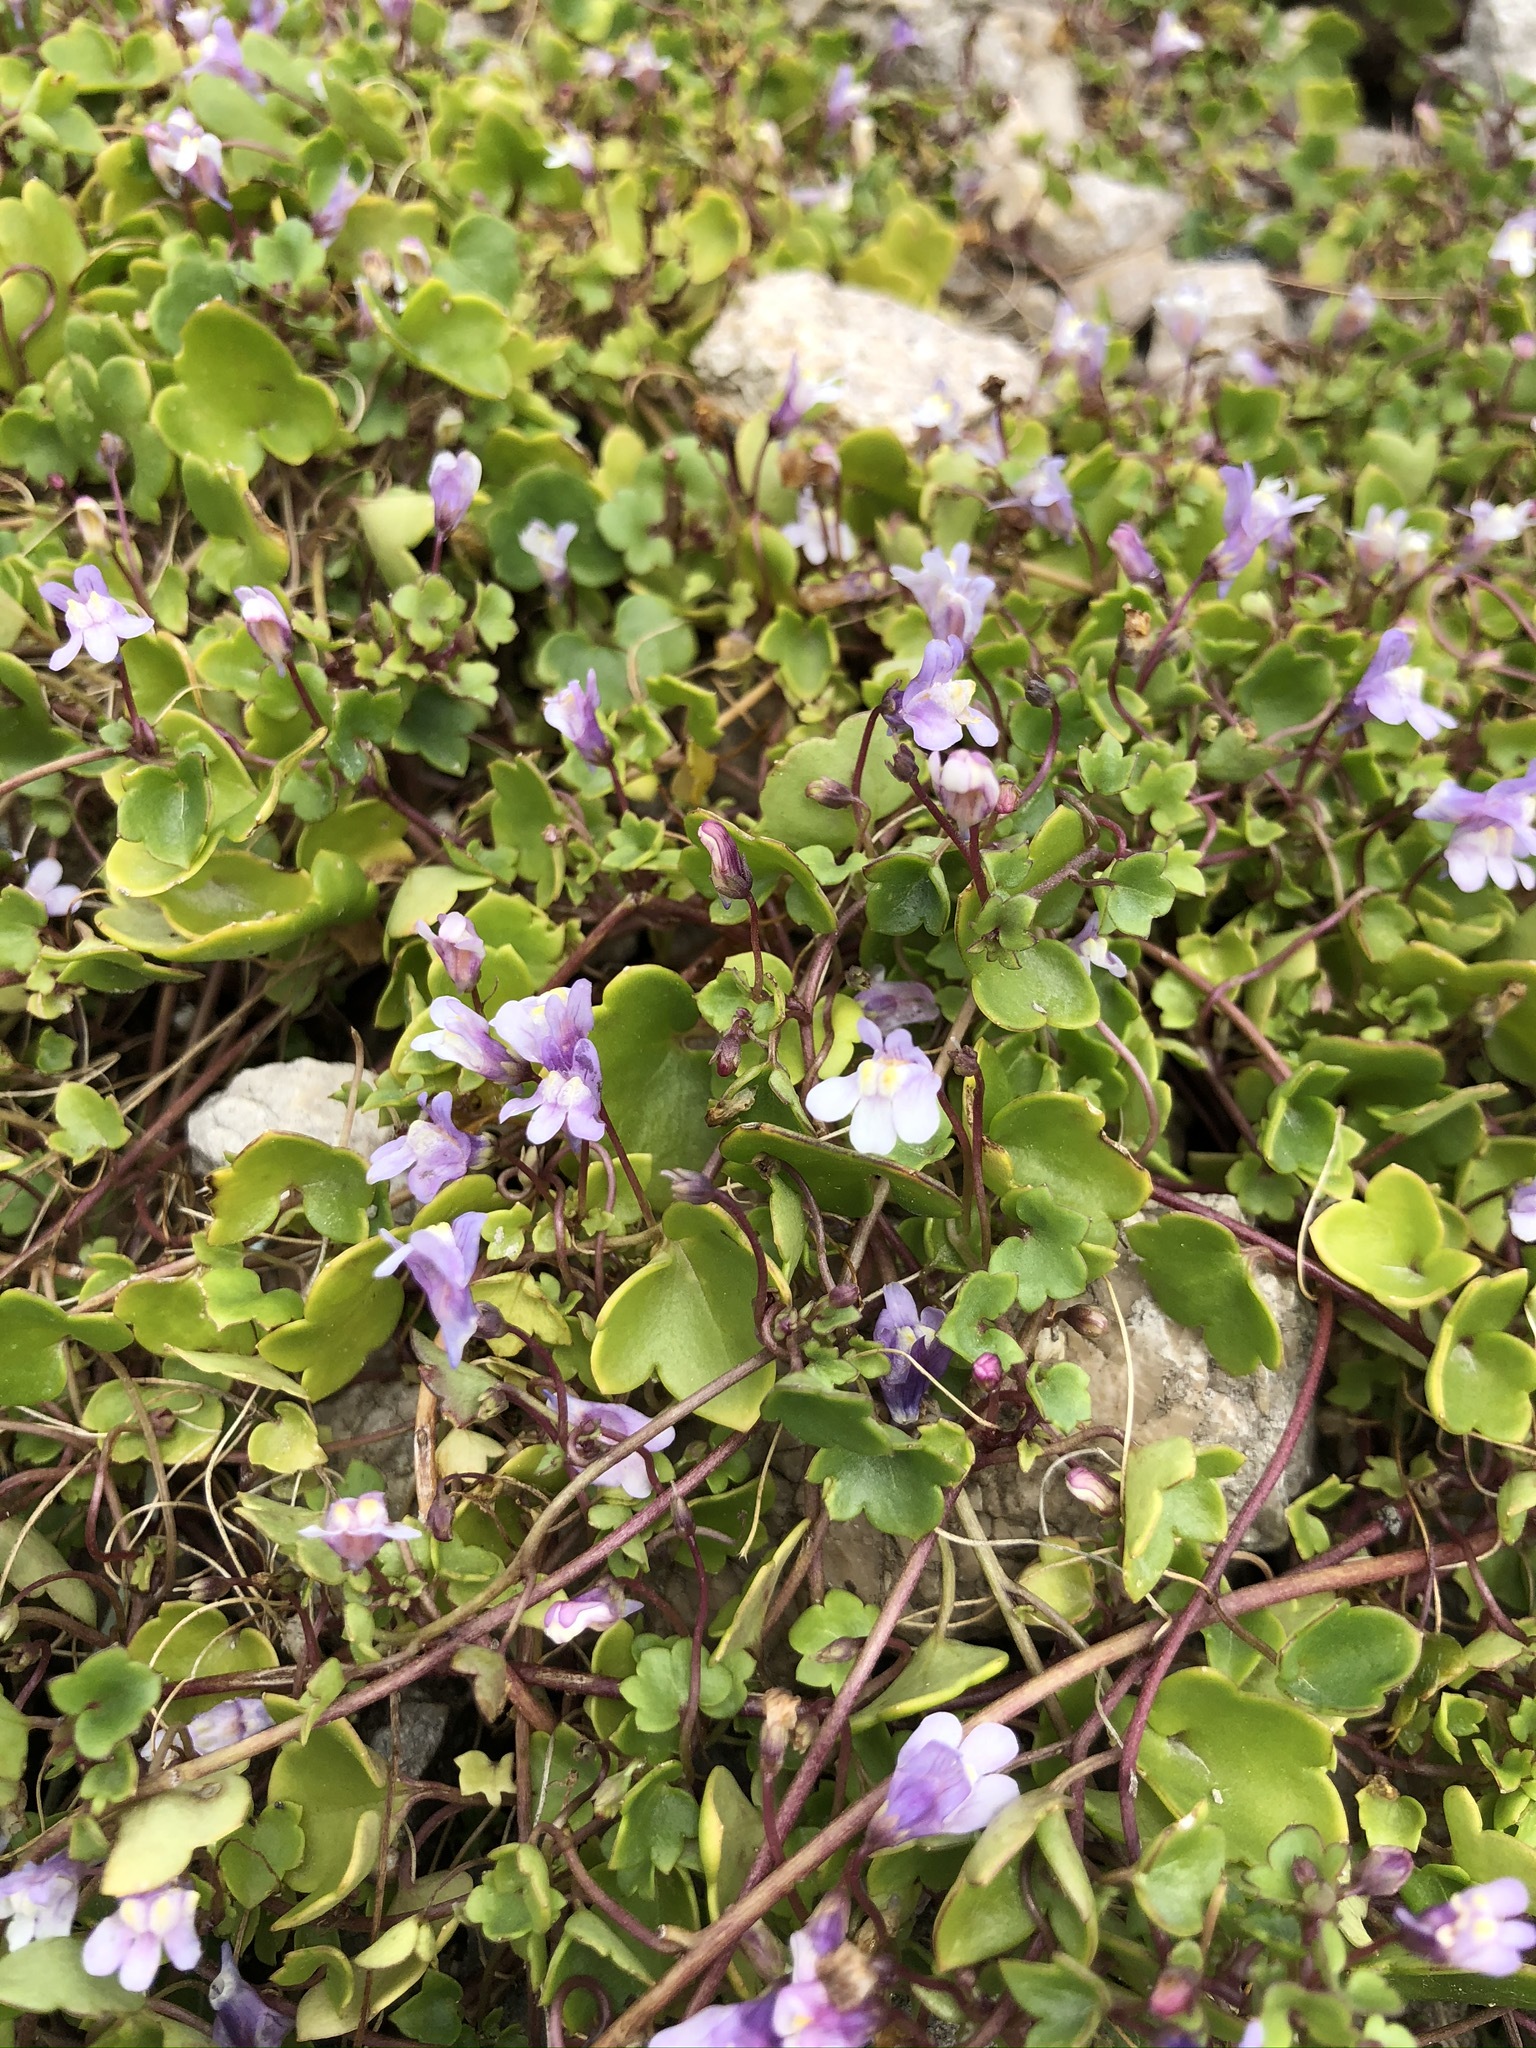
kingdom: Plantae
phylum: Tracheophyta
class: Magnoliopsida
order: Lamiales
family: Plantaginaceae
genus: Cymbalaria
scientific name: Cymbalaria muralis
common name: Ivy-leaved toadflax
